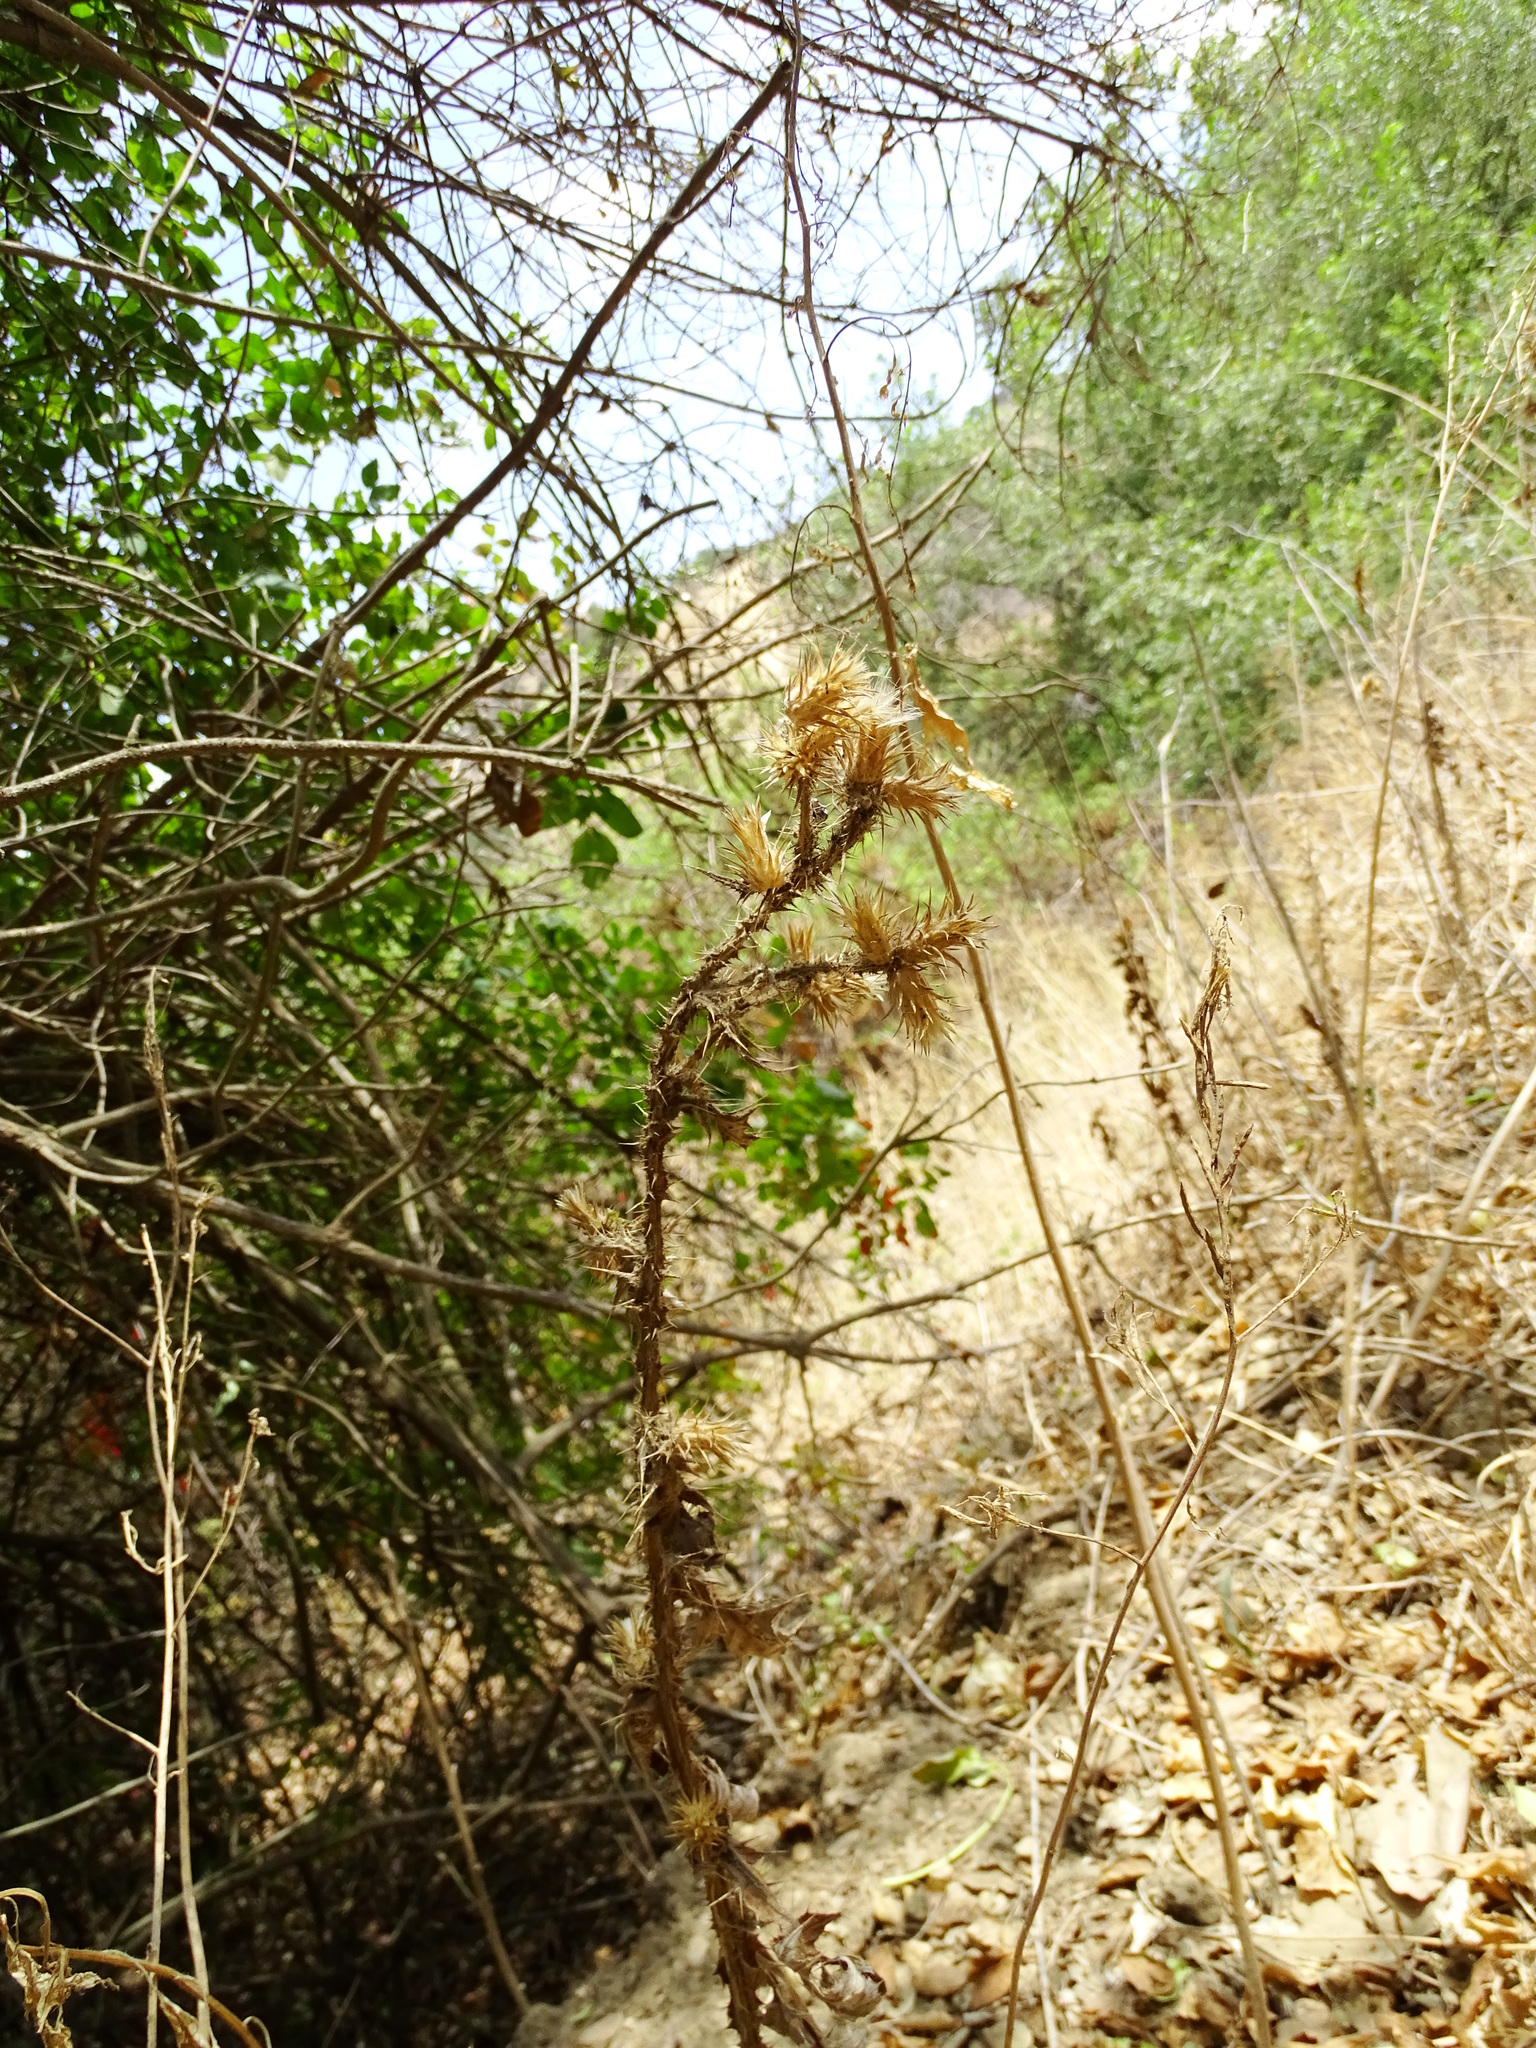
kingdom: Plantae
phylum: Tracheophyta
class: Magnoliopsida
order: Asterales
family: Asteraceae
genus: Carduus
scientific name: Carduus pycnocephalus
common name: Plymouth thistle
